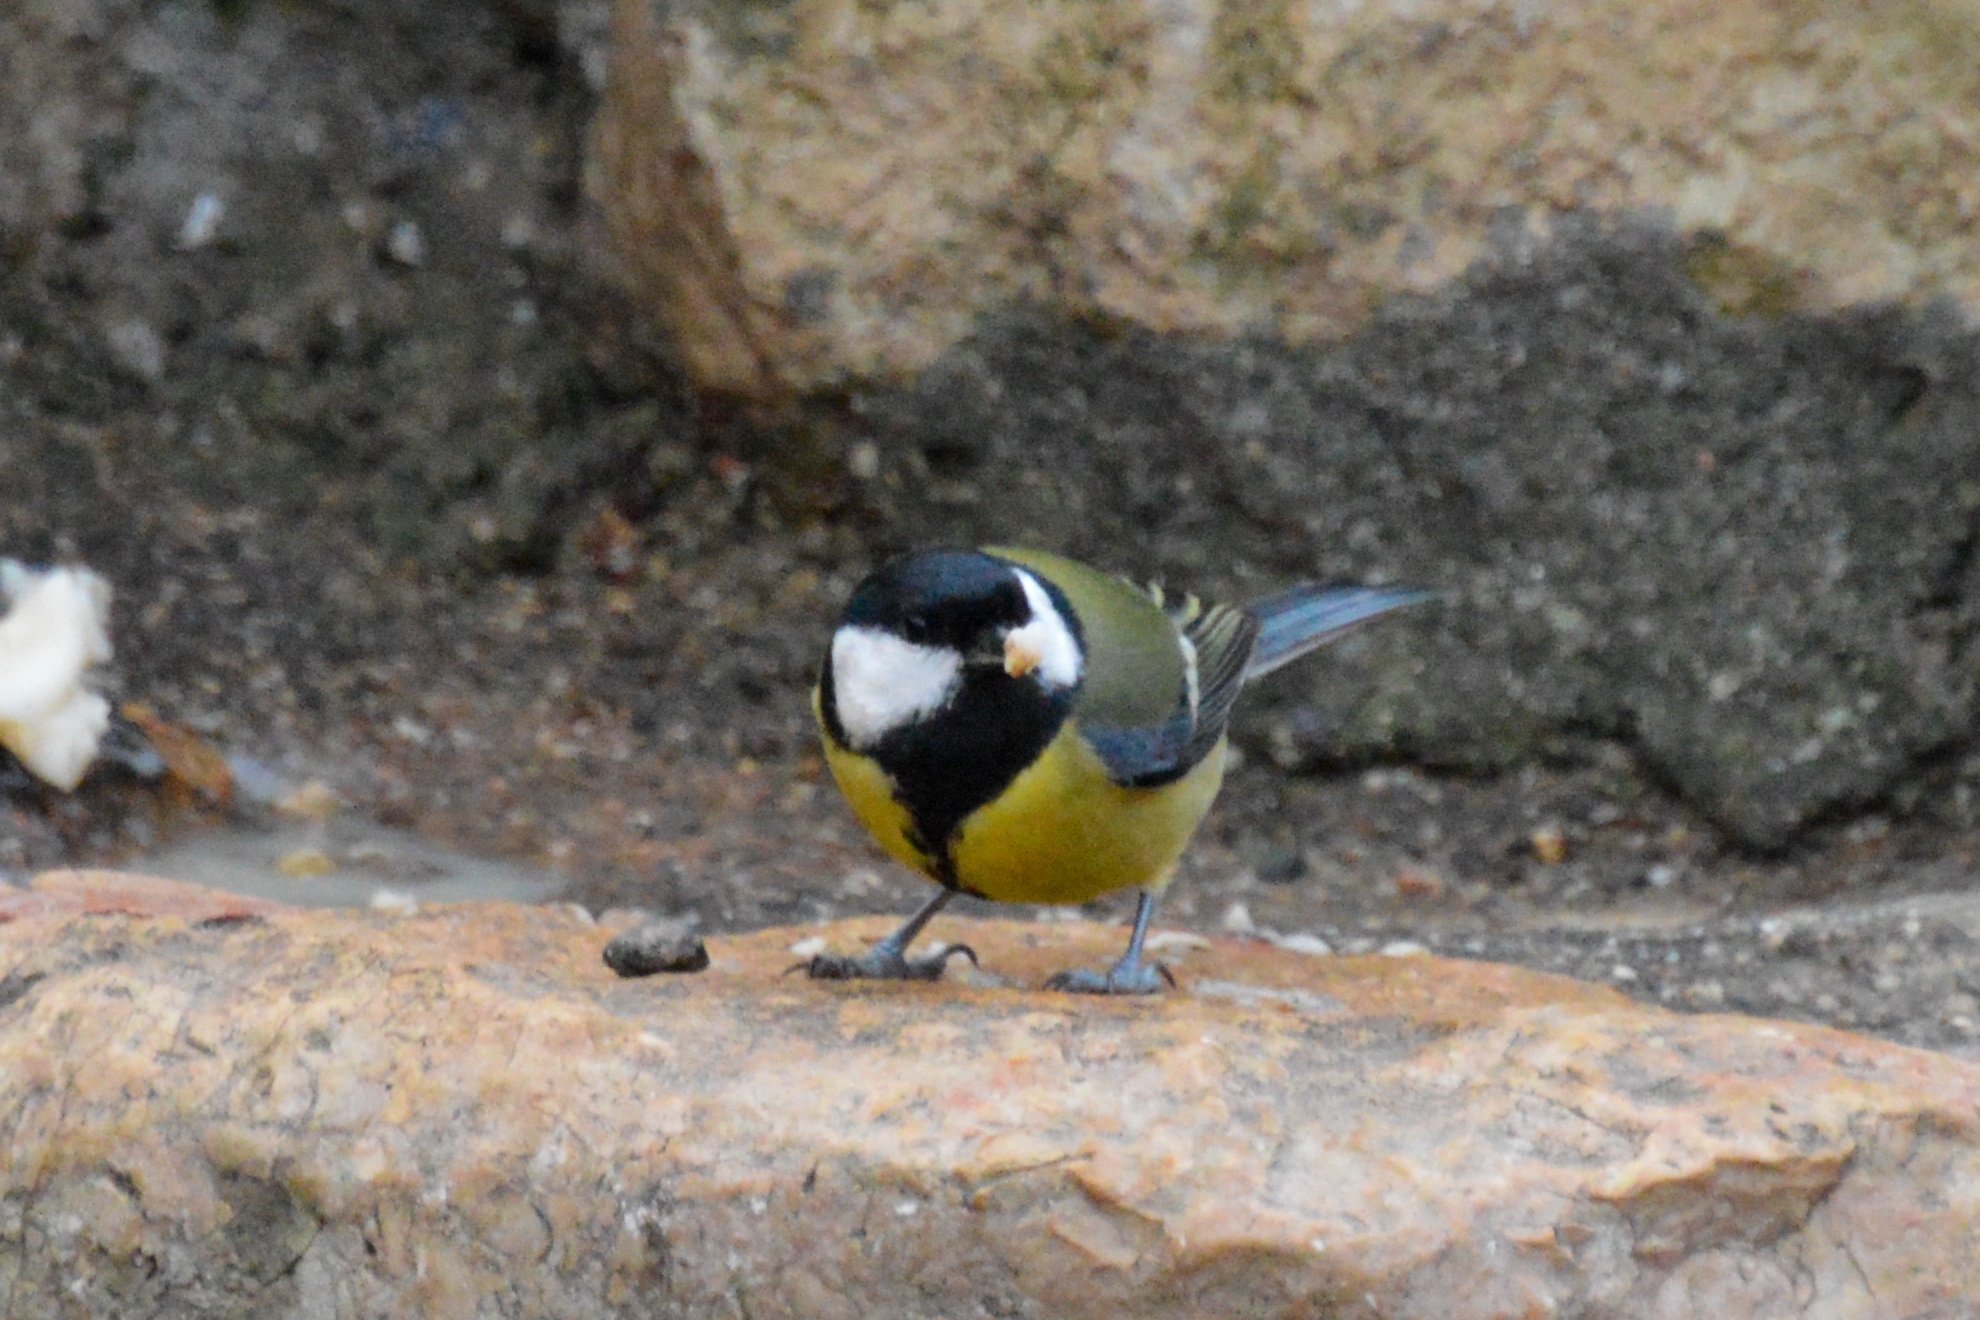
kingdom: Animalia
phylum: Chordata
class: Aves
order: Passeriformes
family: Paridae
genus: Parus
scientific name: Parus major
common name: Great tit
